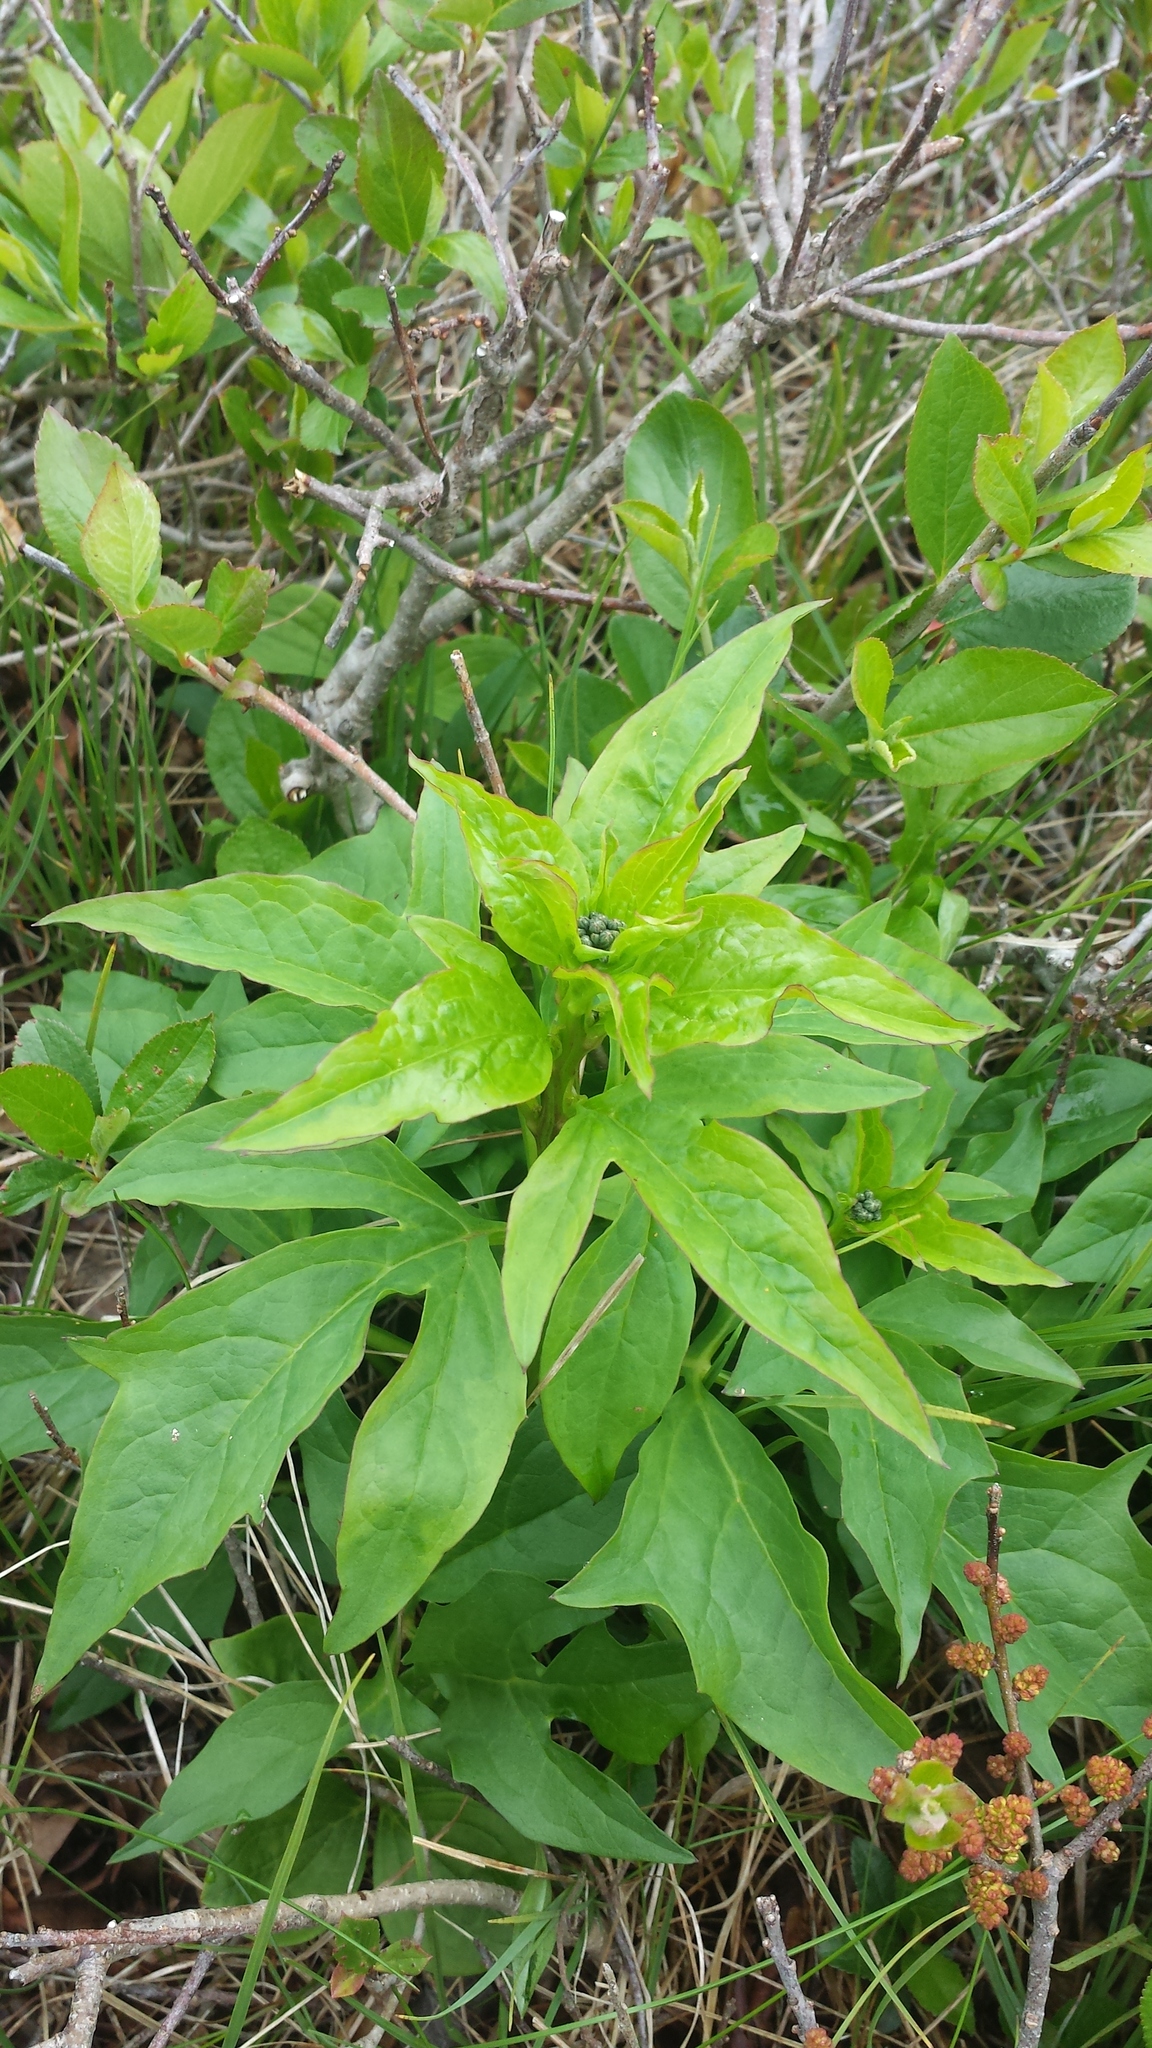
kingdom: Plantae
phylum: Tracheophyta
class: Magnoliopsida
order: Asterales
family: Asteraceae
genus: Nabalus
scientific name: Nabalus trifoliolatus
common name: Gall-of-the-earth
